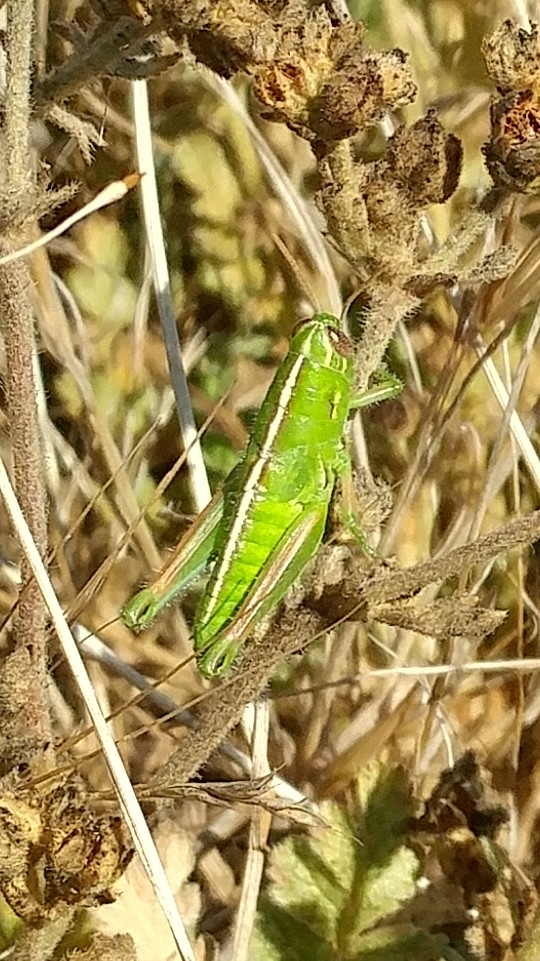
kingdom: Animalia
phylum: Arthropoda
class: Insecta
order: Orthoptera
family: Acrididae
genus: Hesperotettix
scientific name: Hesperotettix pacificus
